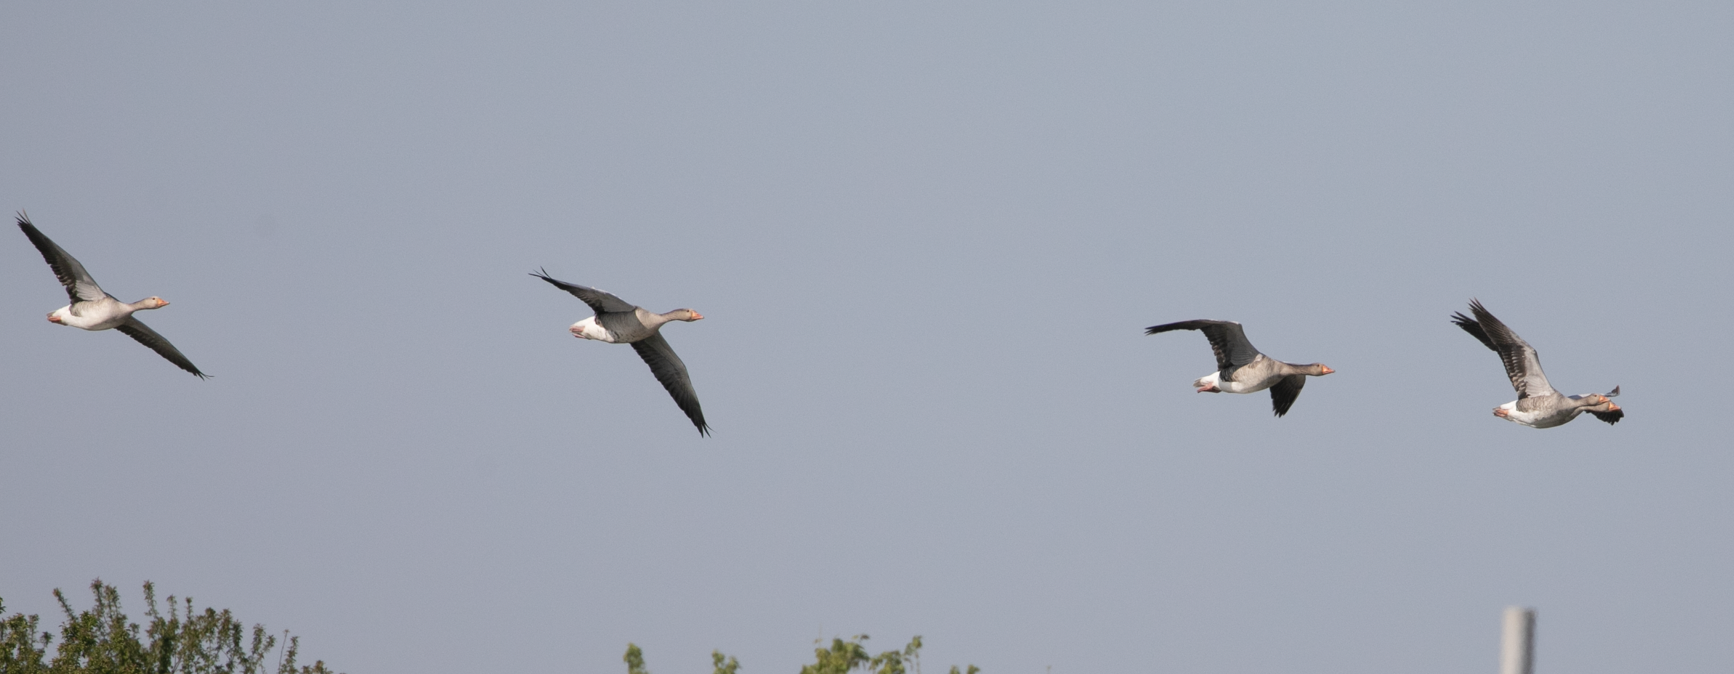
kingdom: Animalia
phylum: Chordata
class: Aves
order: Anseriformes
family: Anatidae
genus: Anser
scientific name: Anser anser
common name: Greylag goose
